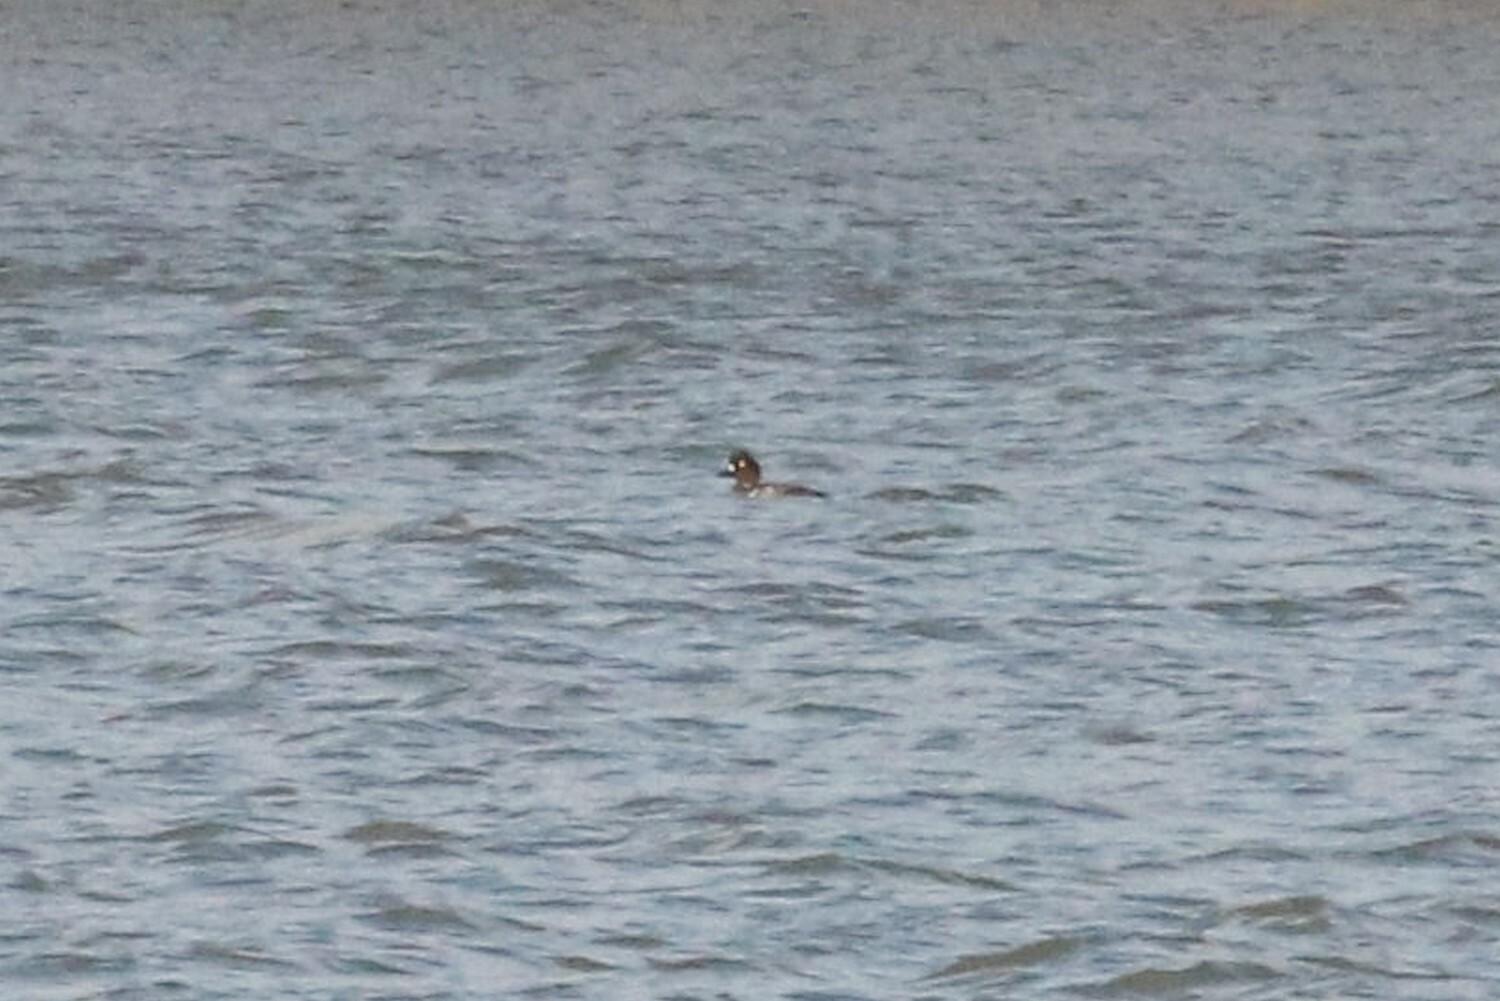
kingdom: Animalia
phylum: Chordata
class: Aves
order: Anseriformes
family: Anatidae
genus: Bucephala
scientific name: Bucephala clangula
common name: Common goldeneye
